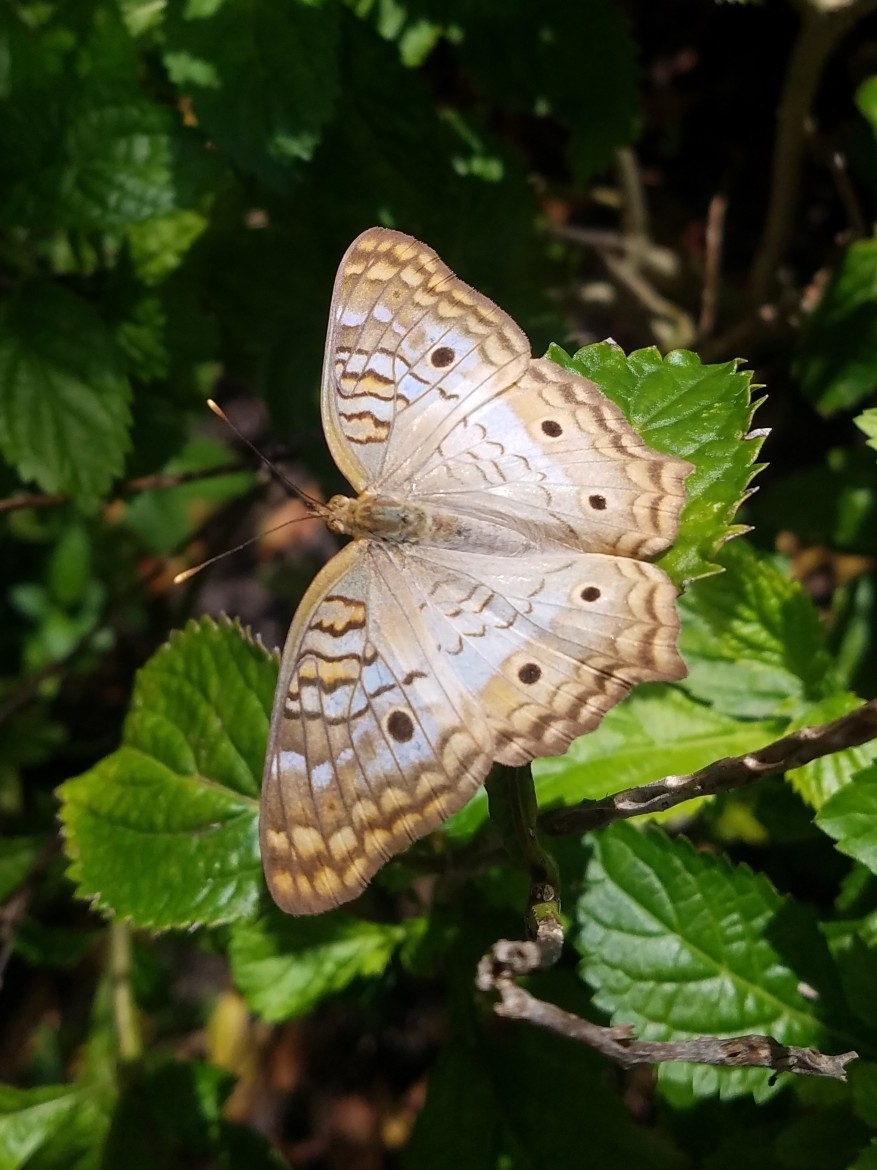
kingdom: Animalia
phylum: Arthropoda
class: Insecta
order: Lepidoptera
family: Nymphalidae
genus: Anartia
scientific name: Anartia jatrophae
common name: White peacock
